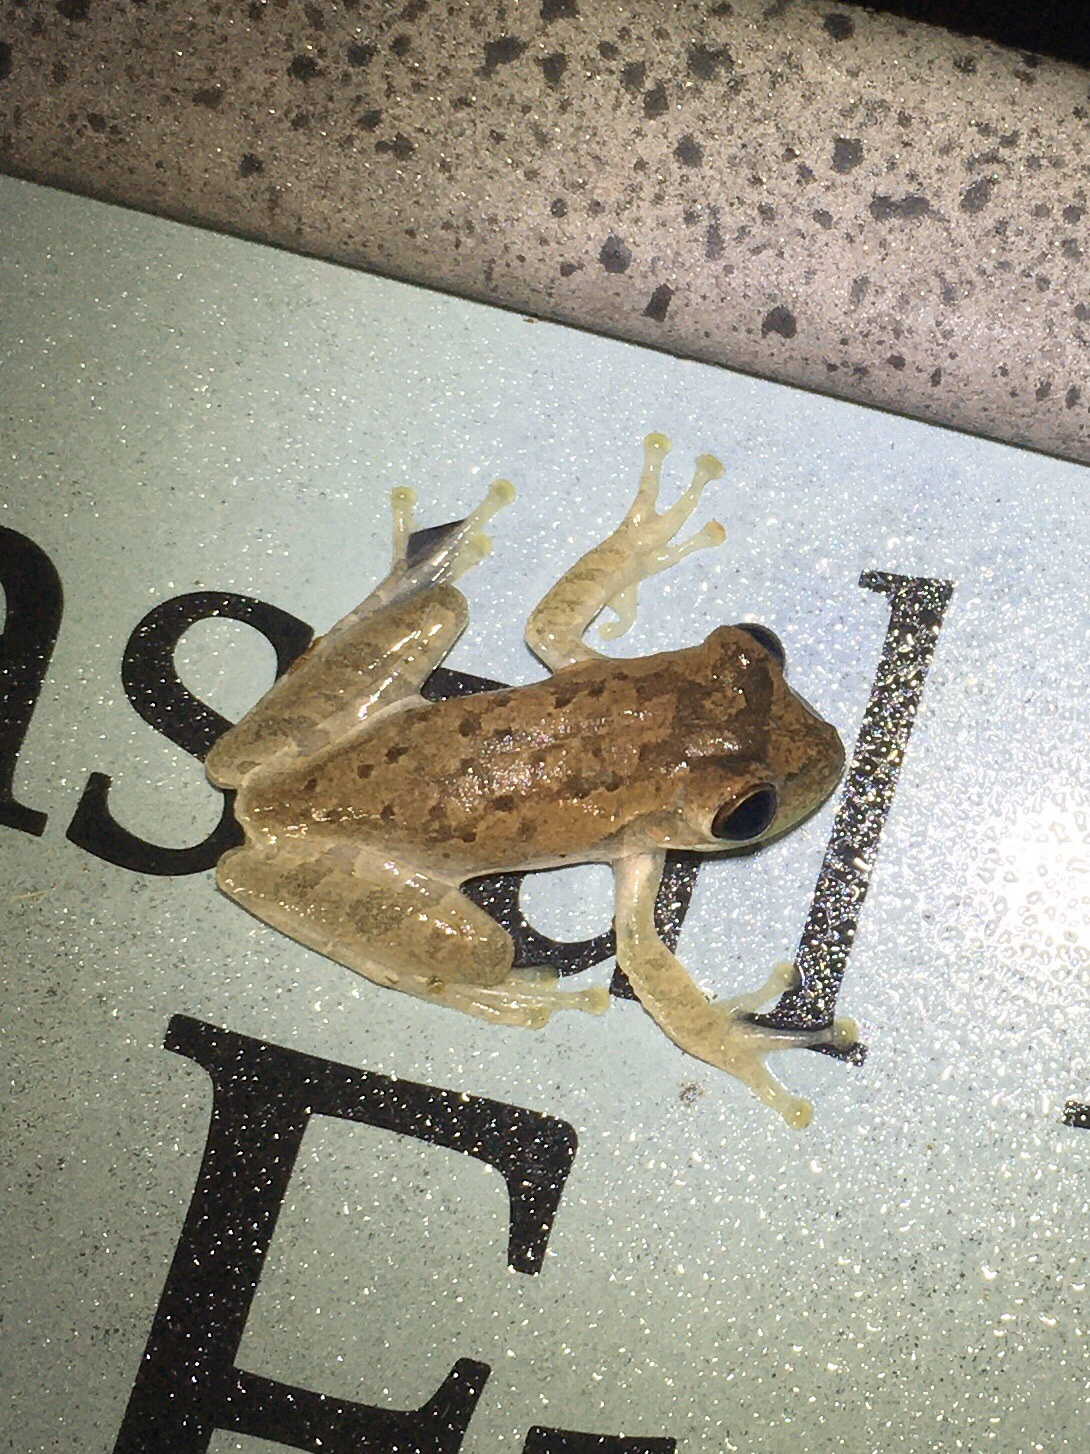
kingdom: Animalia
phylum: Chordata
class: Amphibia
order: Anura
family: Hylidae
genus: Osteopilus
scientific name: Osteopilus septentrionalis
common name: Cuban treefrog
